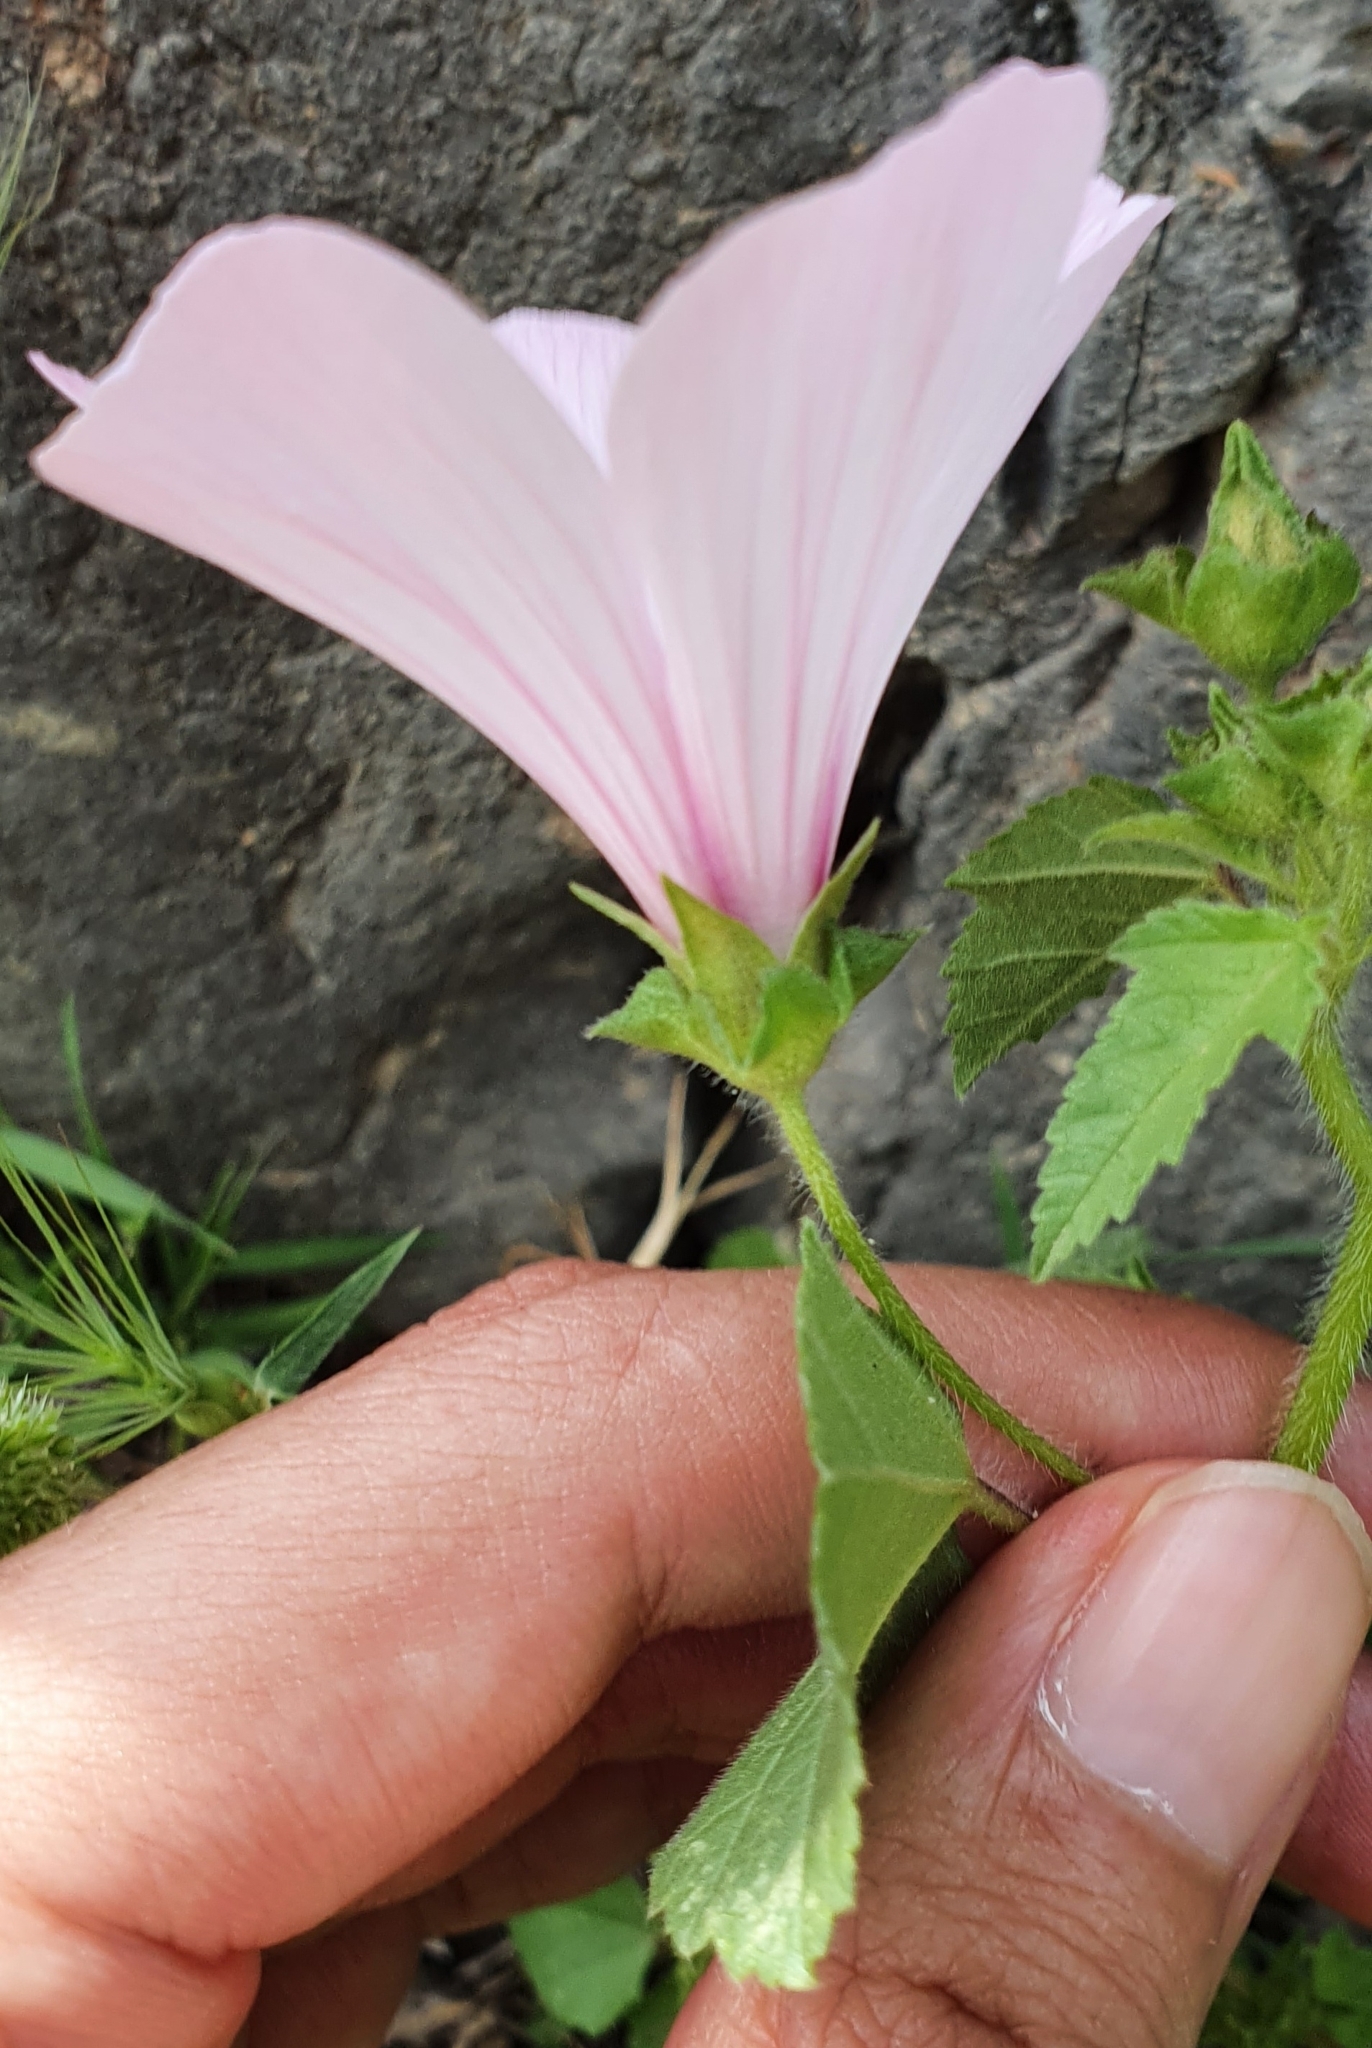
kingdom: Plantae
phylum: Tracheophyta
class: Magnoliopsida
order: Malvales
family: Malvaceae
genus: Malva
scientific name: Malva trimestris
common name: Royal mallow
